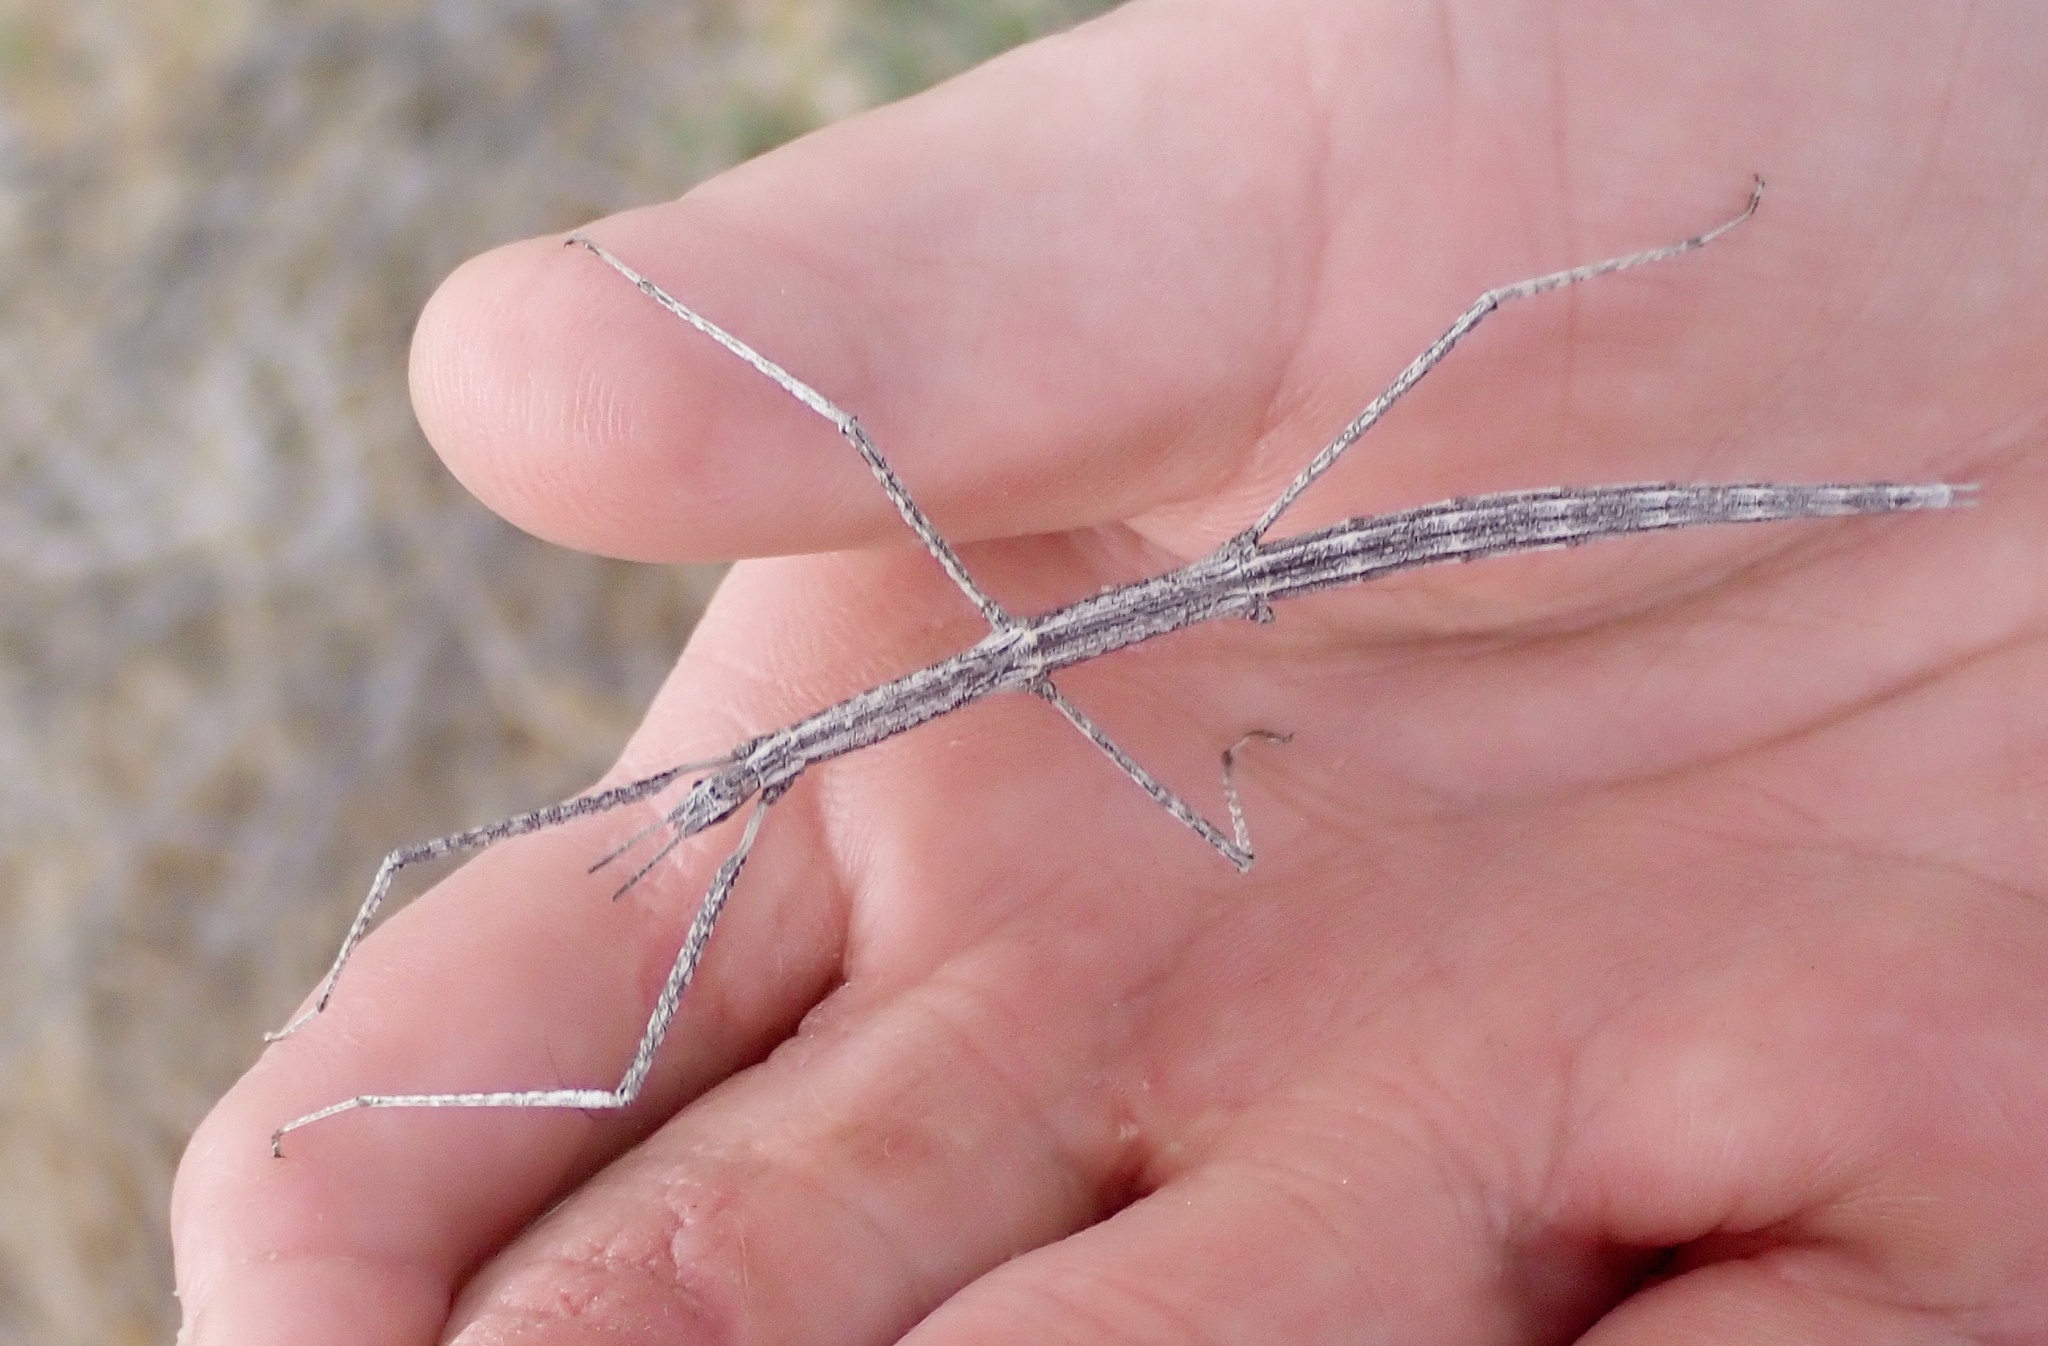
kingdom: Animalia
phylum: Arthropoda
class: Insecta
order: Phasmida
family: Heteronemiidae
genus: Parabacillus
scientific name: Parabacillus hesperus
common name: Western short-horned walkingstick
